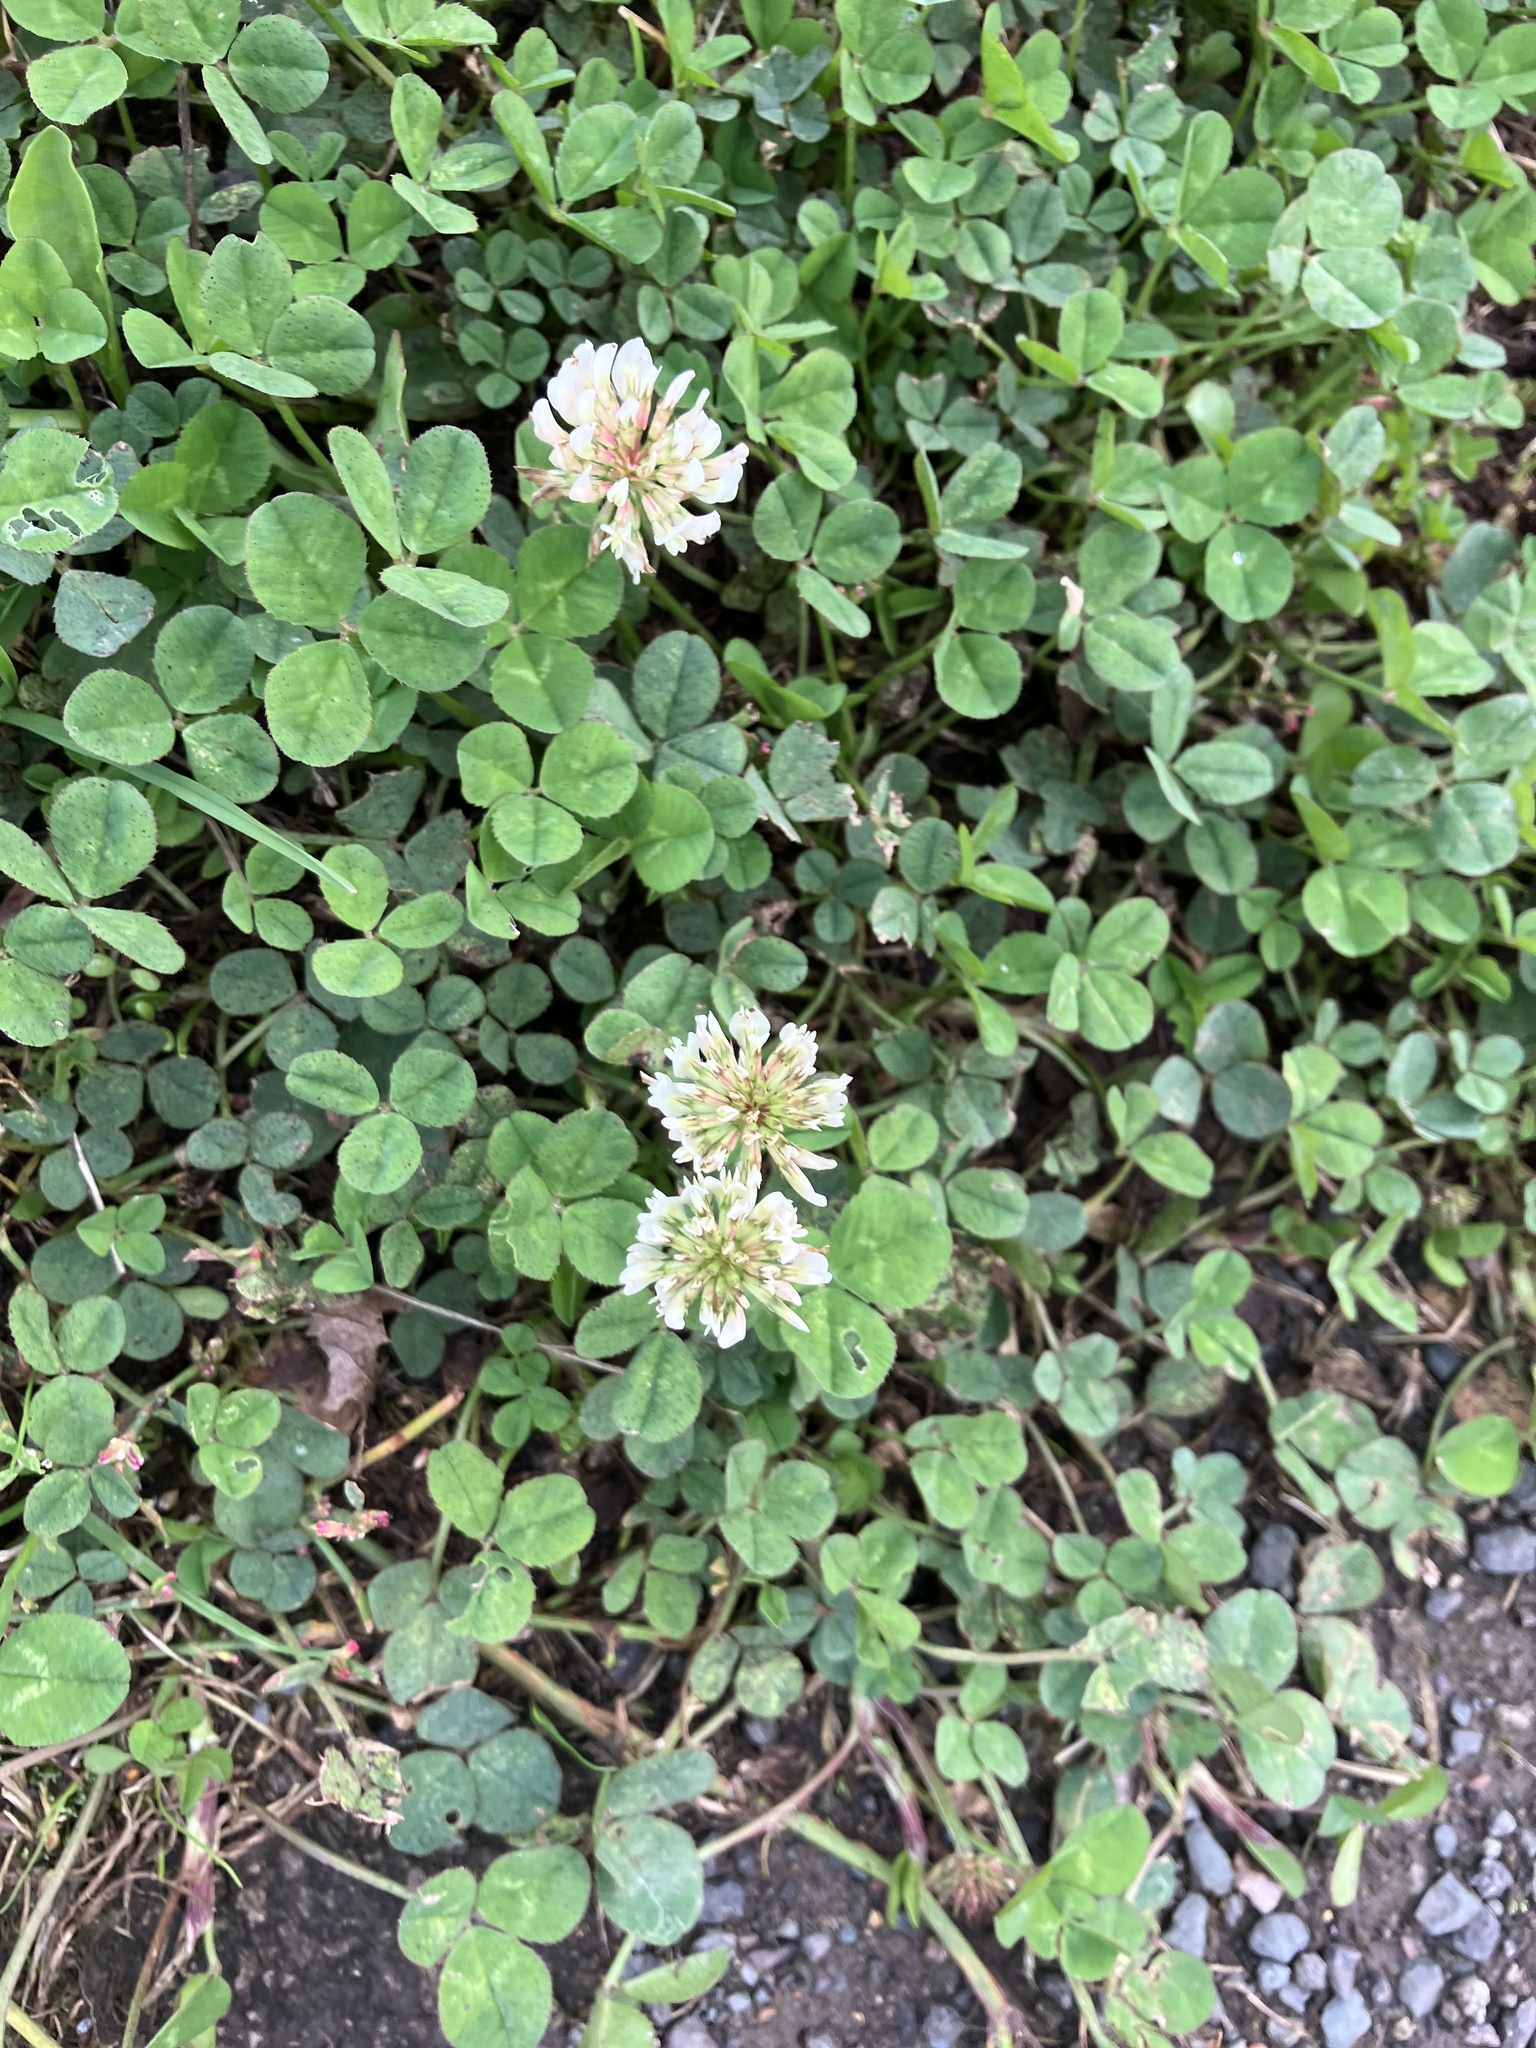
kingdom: Plantae
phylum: Tracheophyta
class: Magnoliopsida
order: Fabales
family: Fabaceae
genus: Trifolium
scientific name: Trifolium repens
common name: White clover
